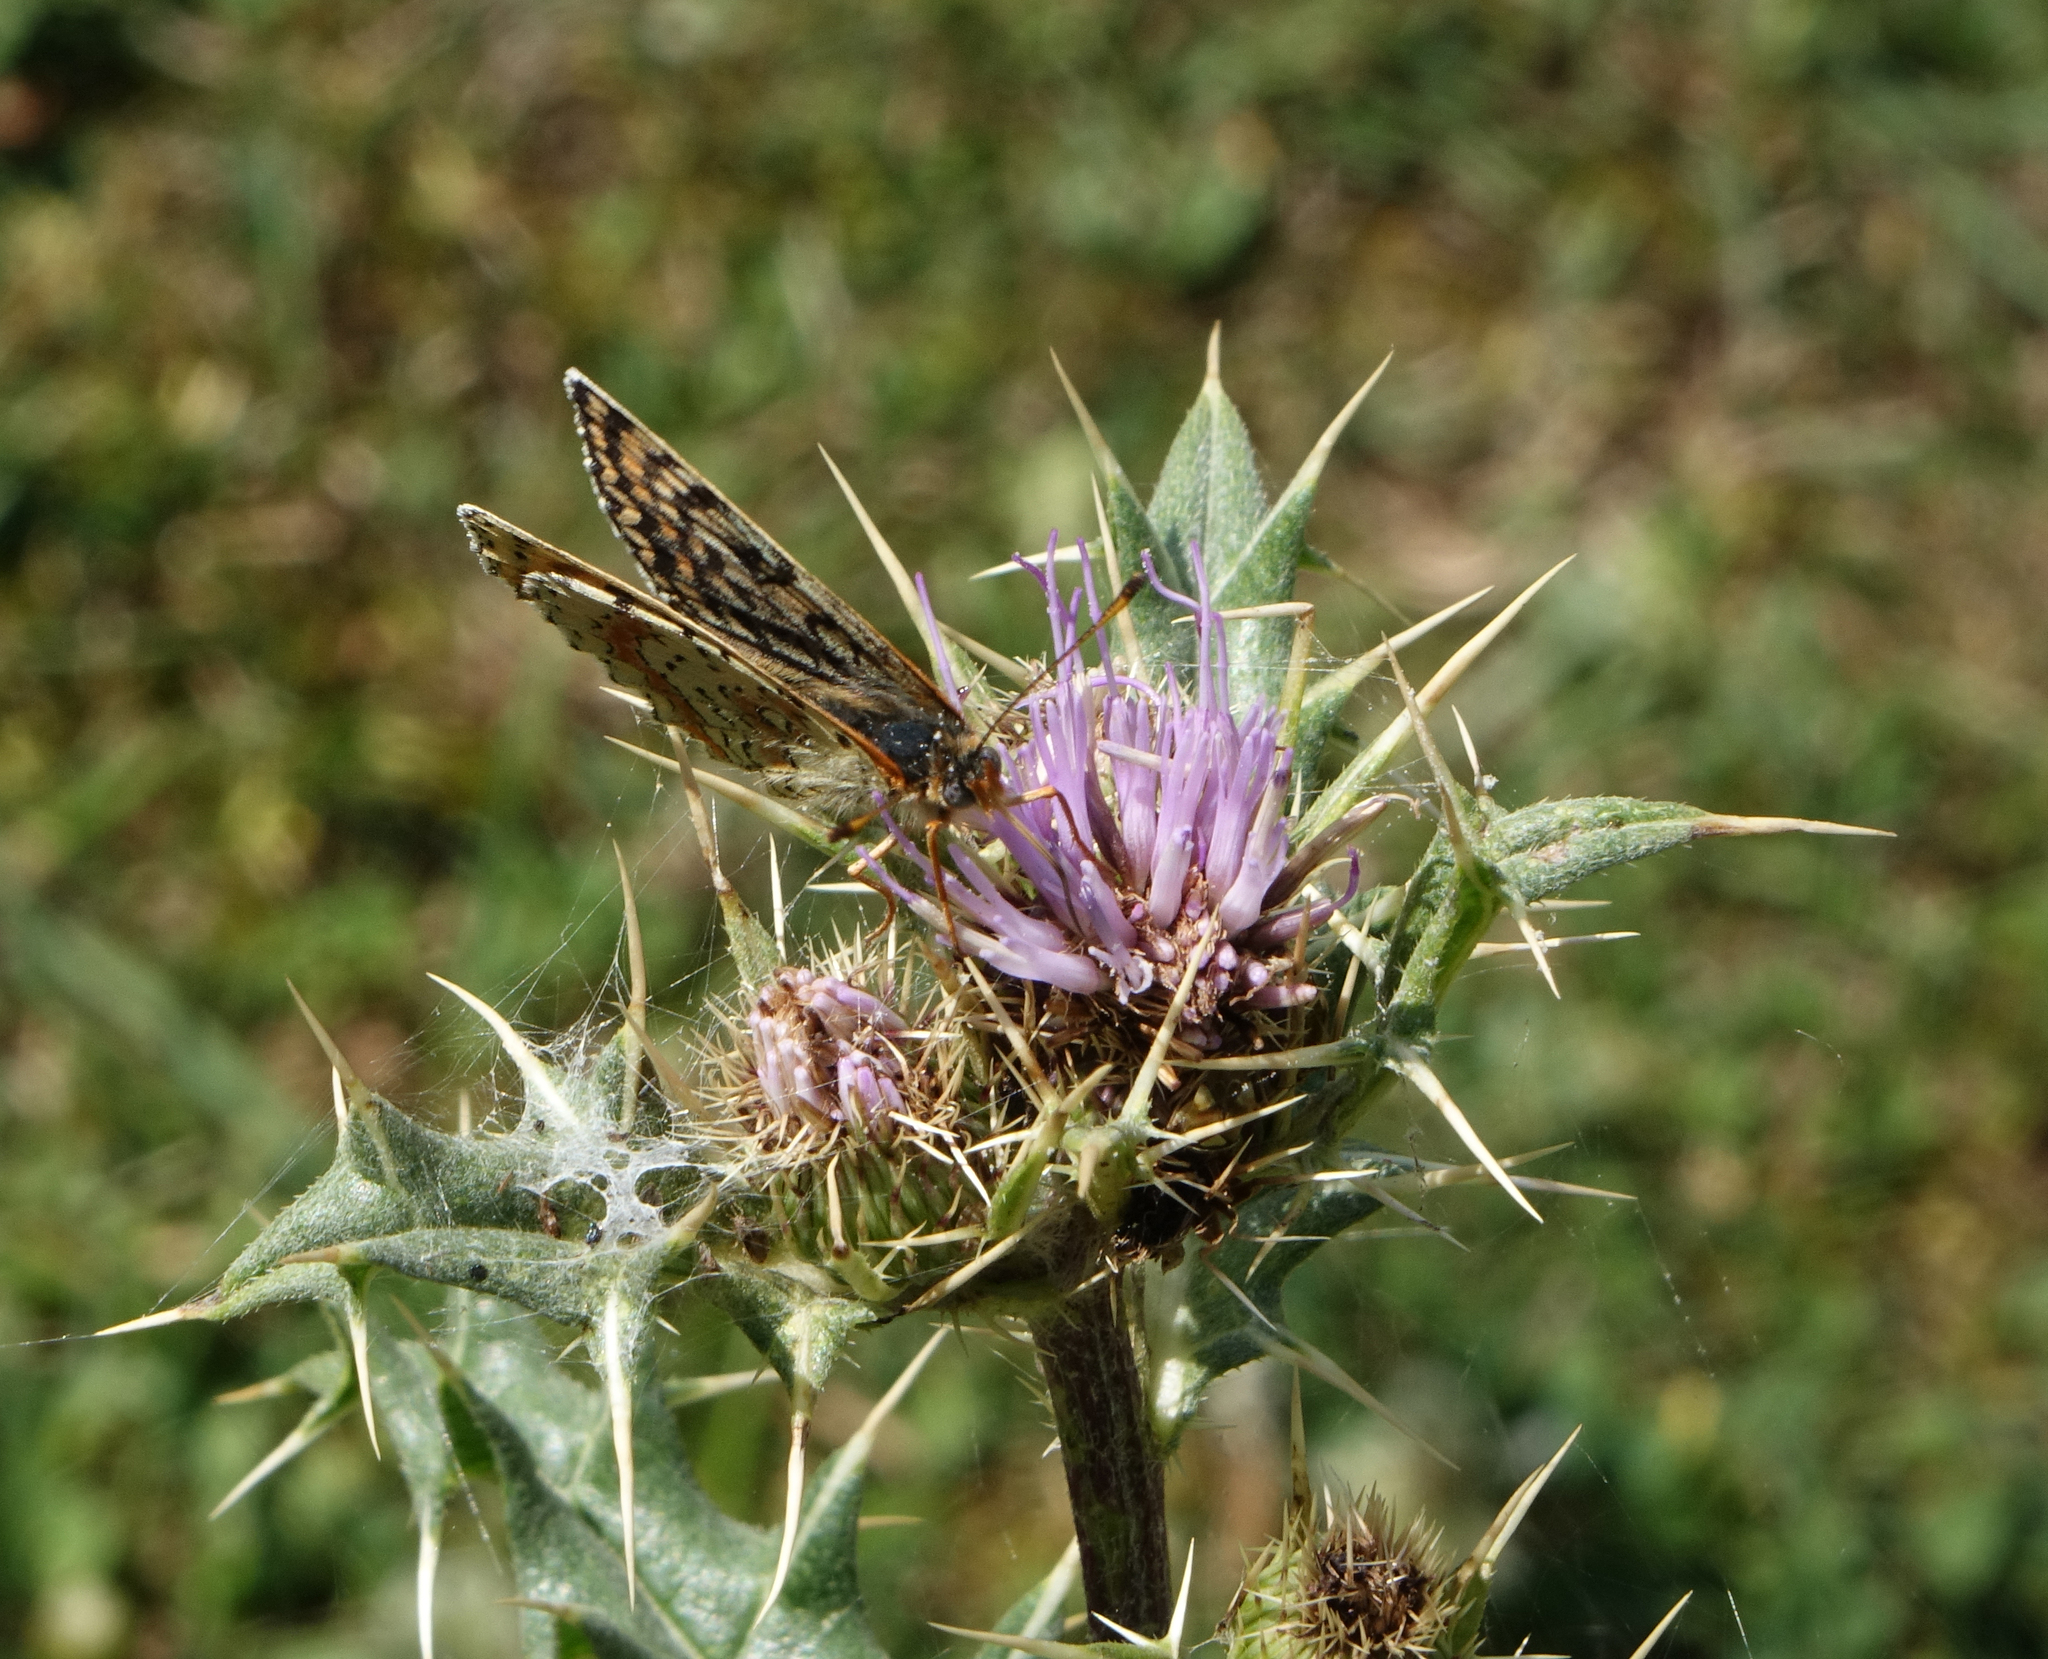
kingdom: Animalia
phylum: Arthropoda
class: Insecta
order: Lepidoptera
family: Nymphalidae
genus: Melitaea
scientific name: Melitaea cinxia
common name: Glanville fritillary
